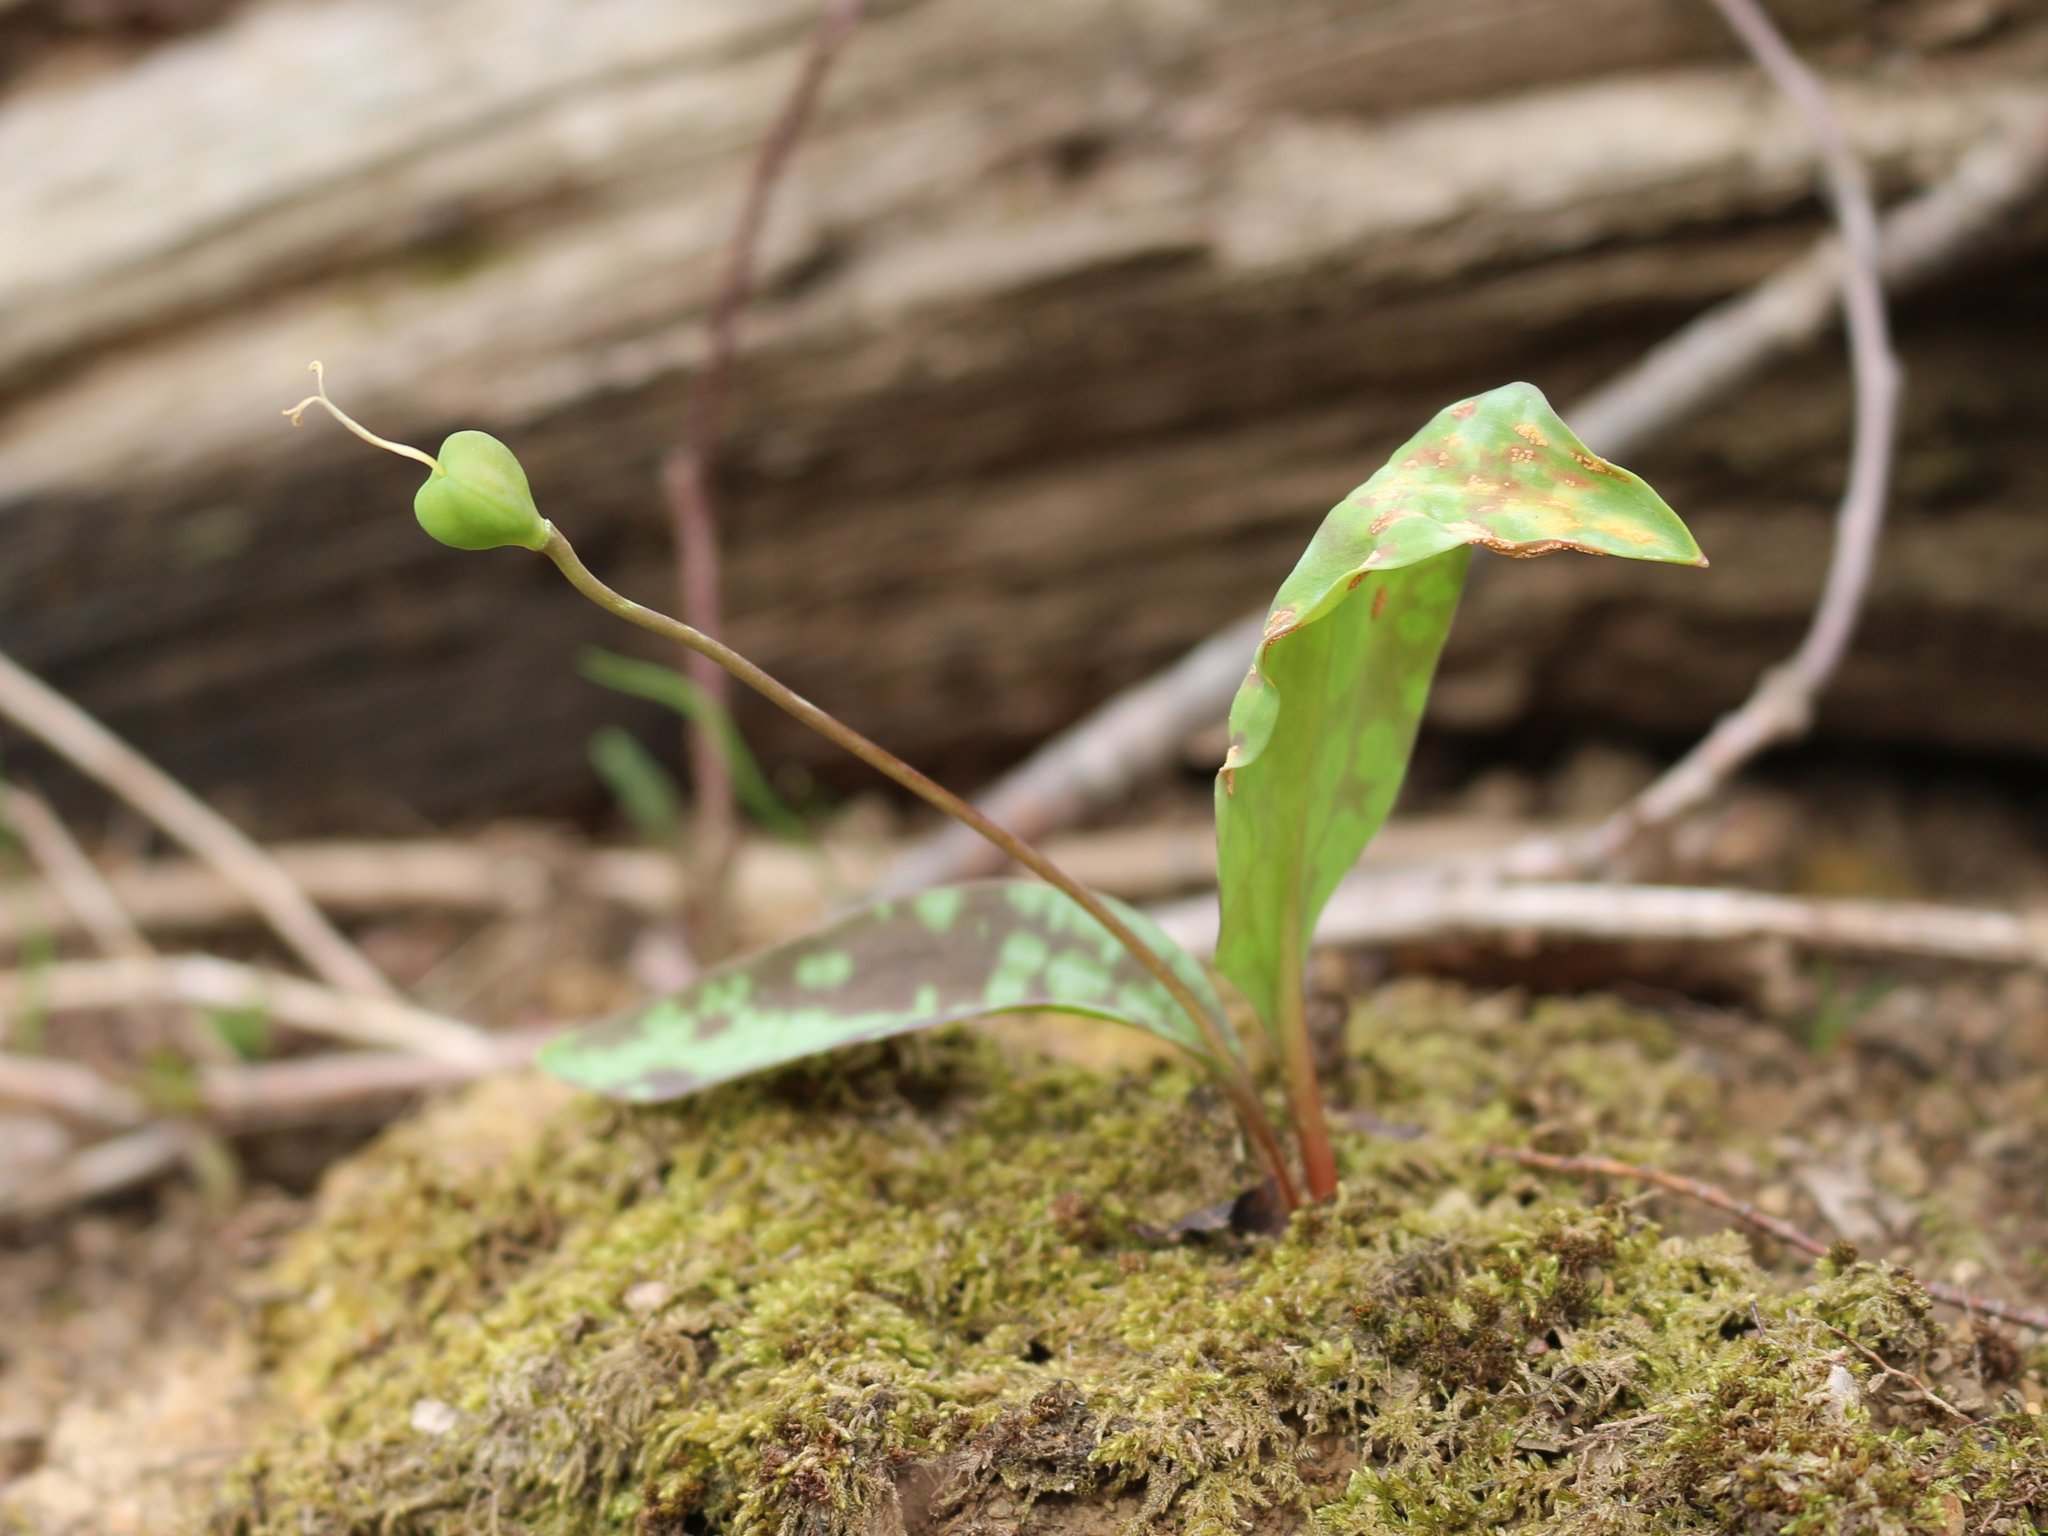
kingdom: Plantae
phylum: Tracheophyta
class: Liliopsida
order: Liliales
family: Liliaceae
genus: Erythronium
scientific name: Erythronium caucasicum
